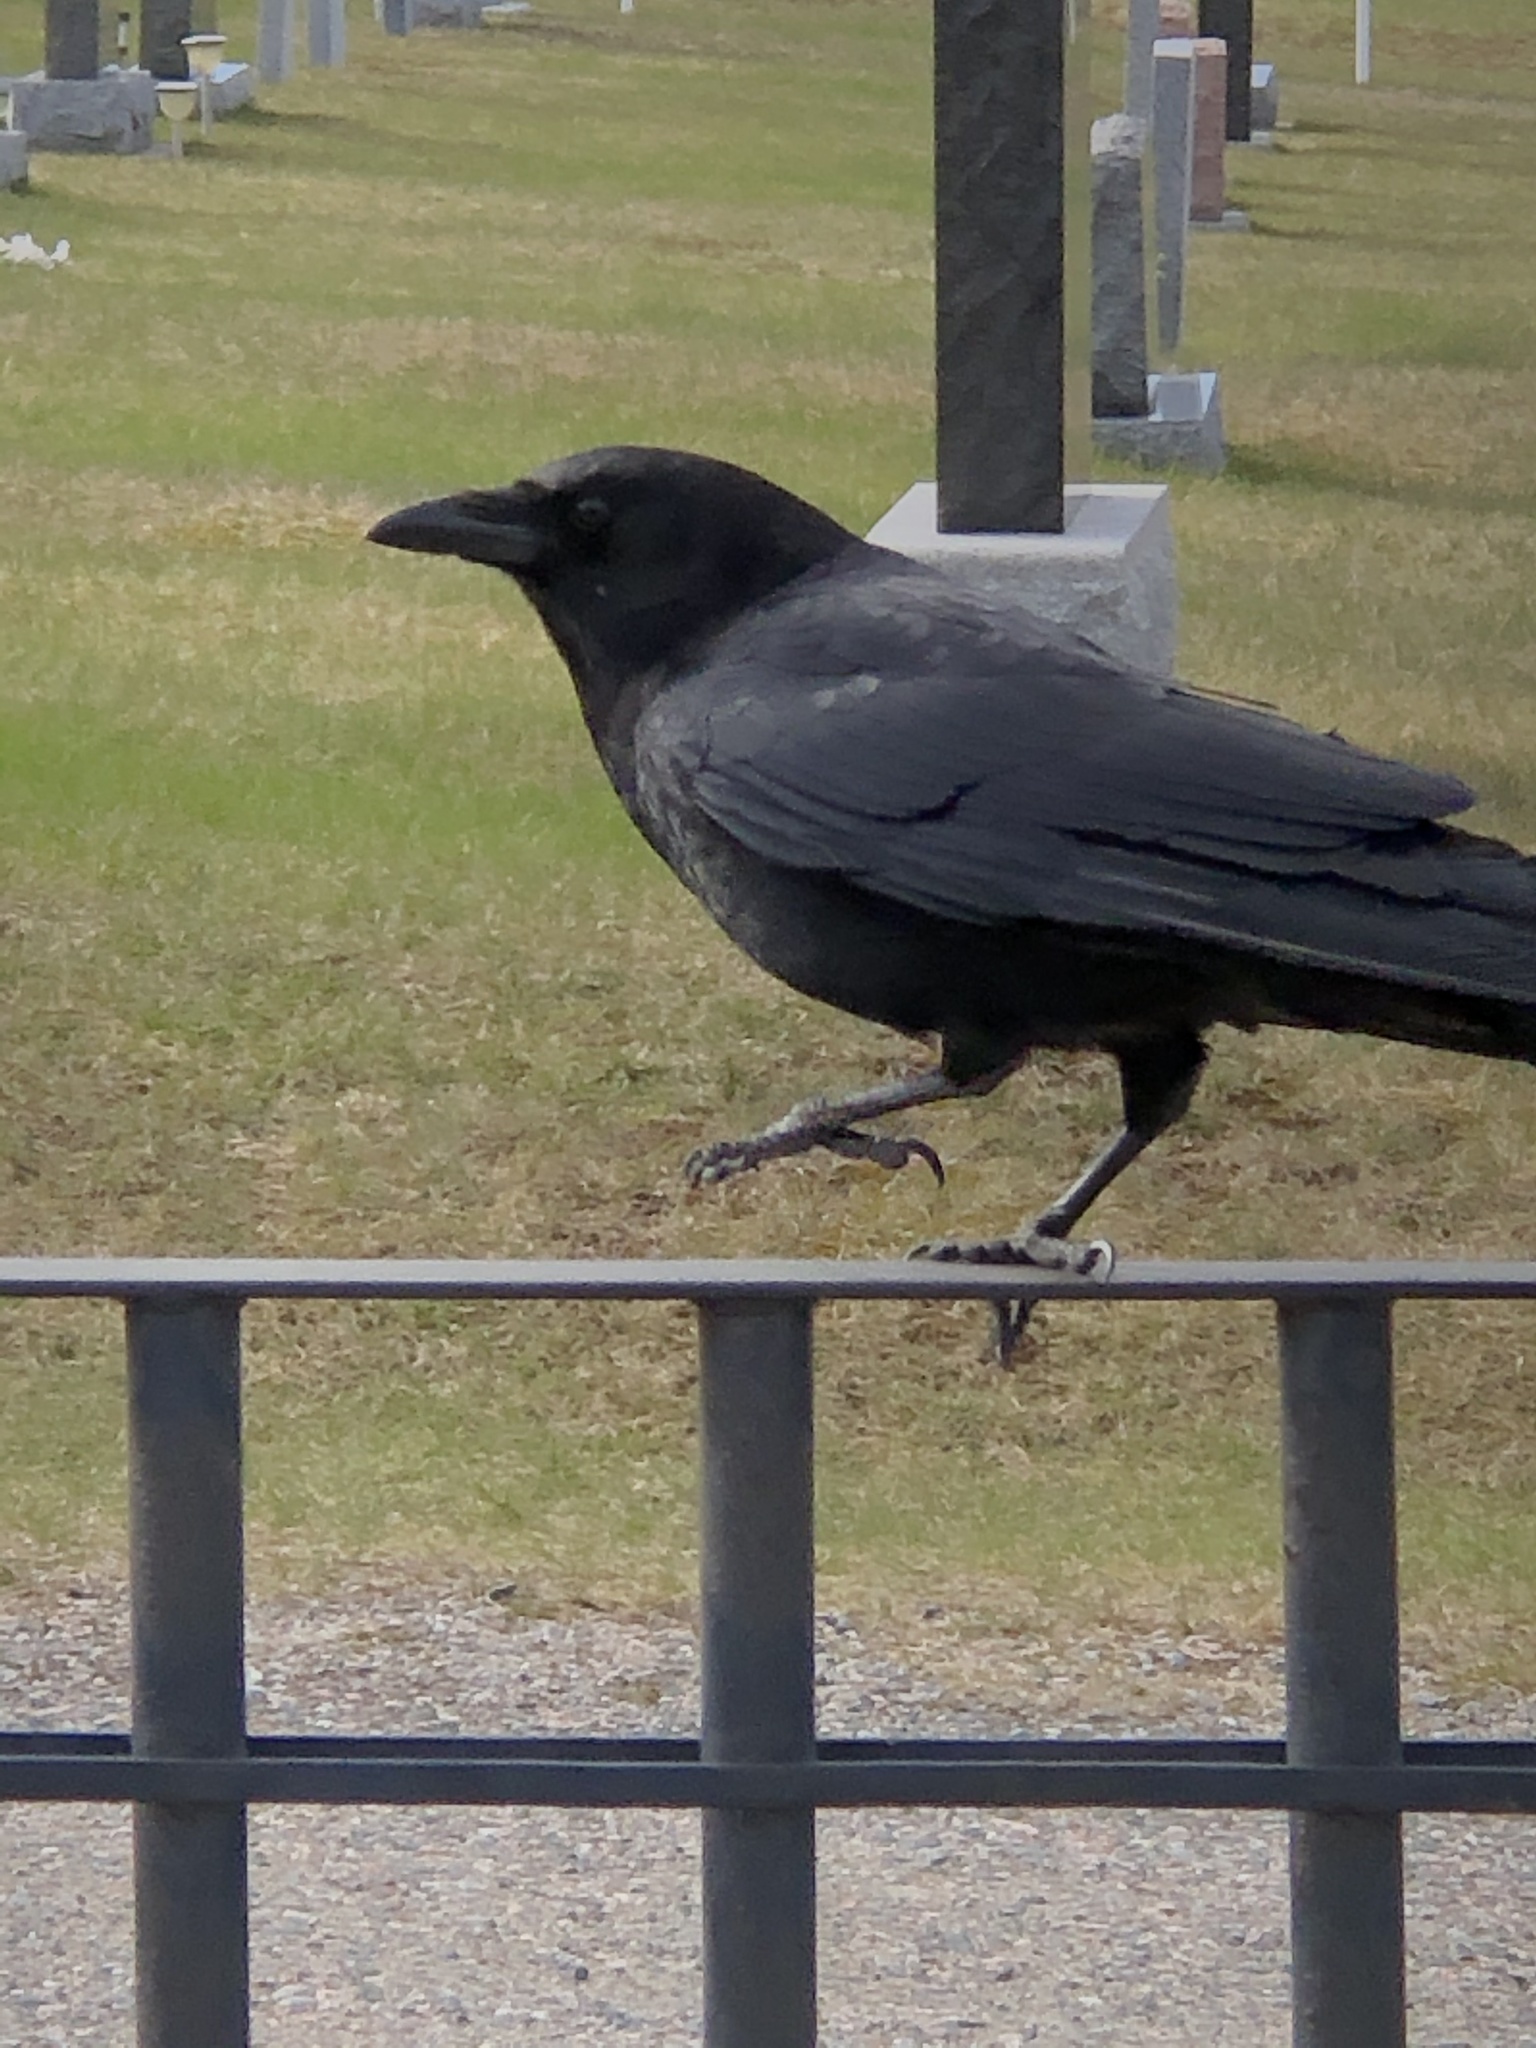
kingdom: Animalia
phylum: Chordata
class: Aves
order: Passeriformes
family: Corvidae
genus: Corvus
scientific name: Corvus brachyrhynchos
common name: American crow
